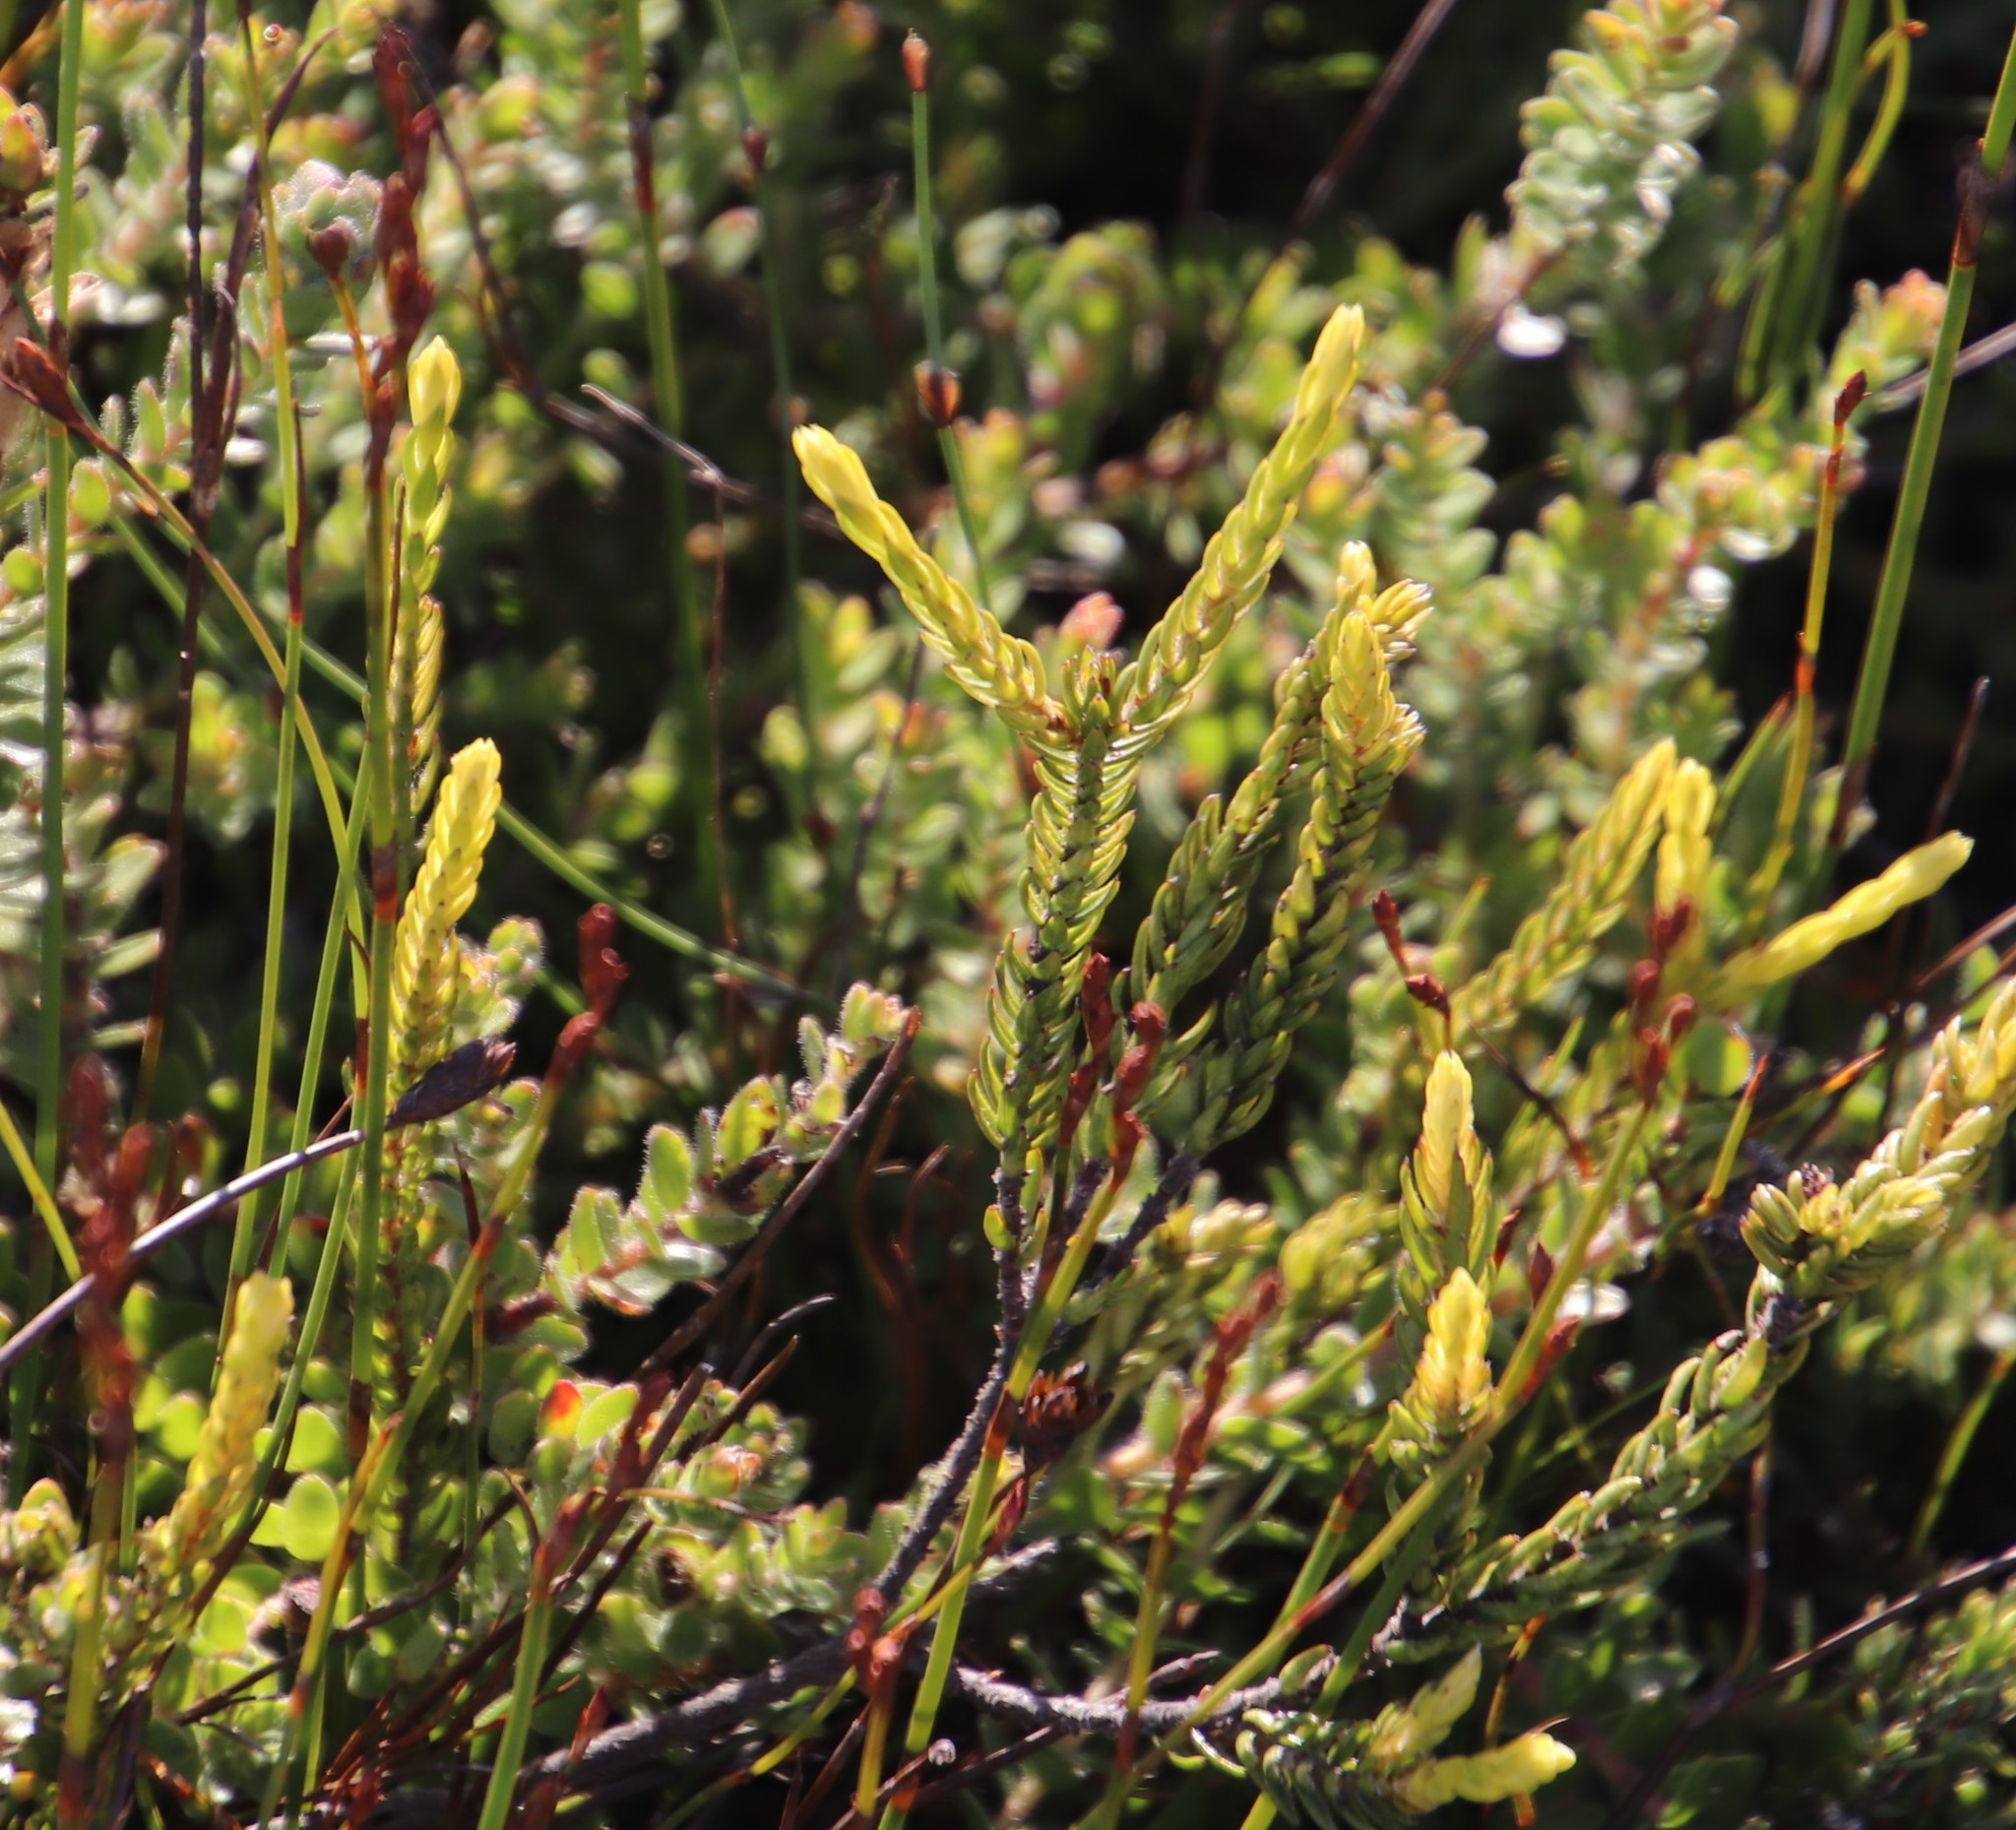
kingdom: Plantae
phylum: Tracheophyta
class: Magnoliopsida
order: Malvales
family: Thymelaeaceae
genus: Lachnaea
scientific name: Lachnaea grandiflora
